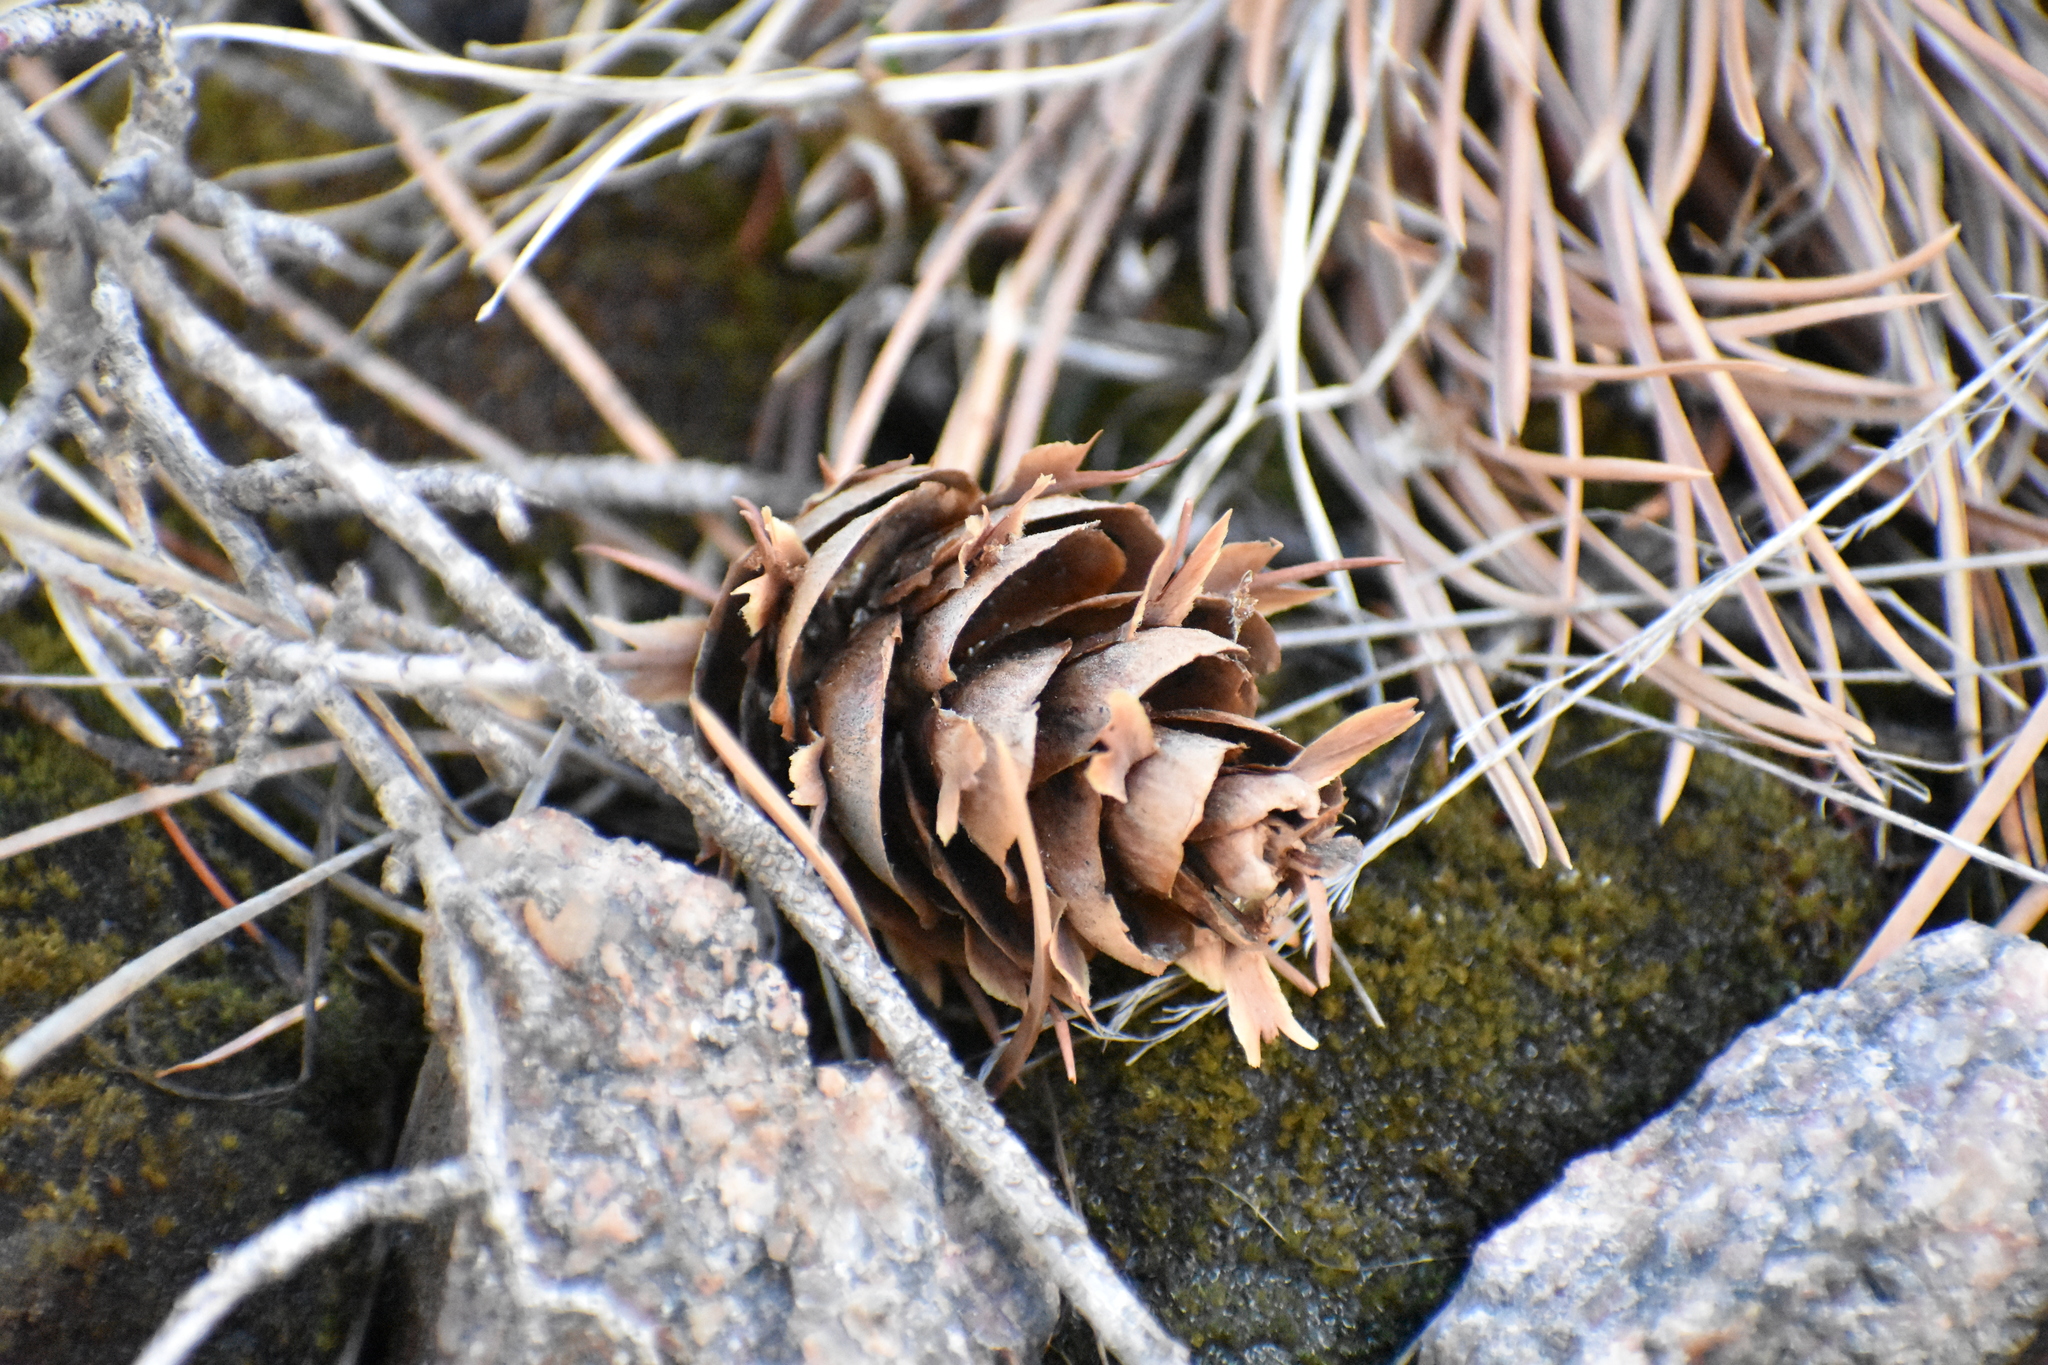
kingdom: Plantae
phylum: Tracheophyta
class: Pinopsida
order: Pinales
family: Pinaceae
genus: Pseudotsuga
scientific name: Pseudotsuga menziesii
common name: Douglas fir
